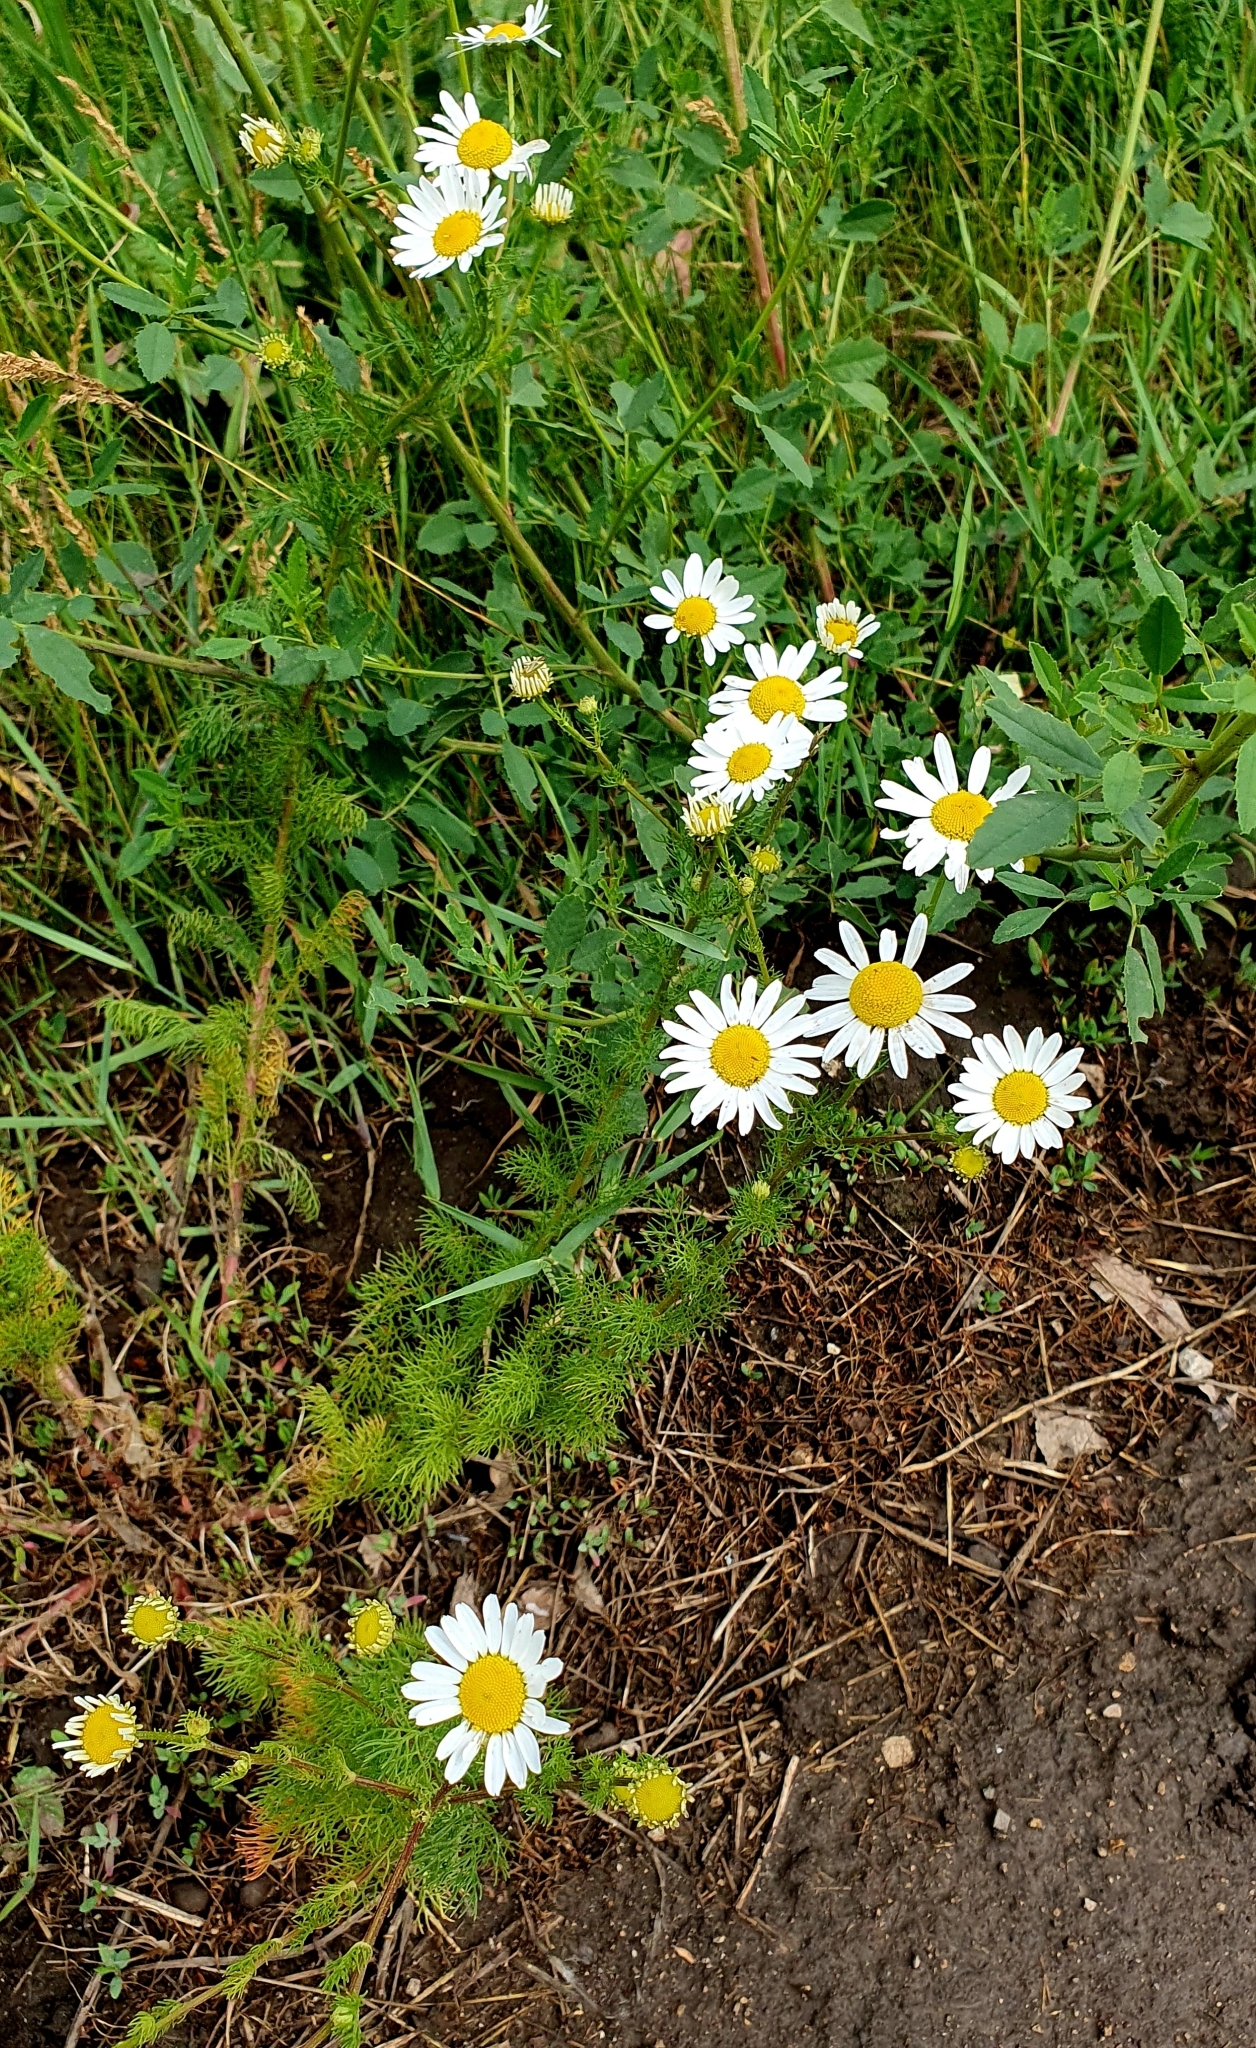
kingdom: Plantae
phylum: Tracheophyta
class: Magnoliopsida
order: Asterales
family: Asteraceae
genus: Tripleurospermum
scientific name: Tripleurospermum inodorum
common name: Scentless mayweed
